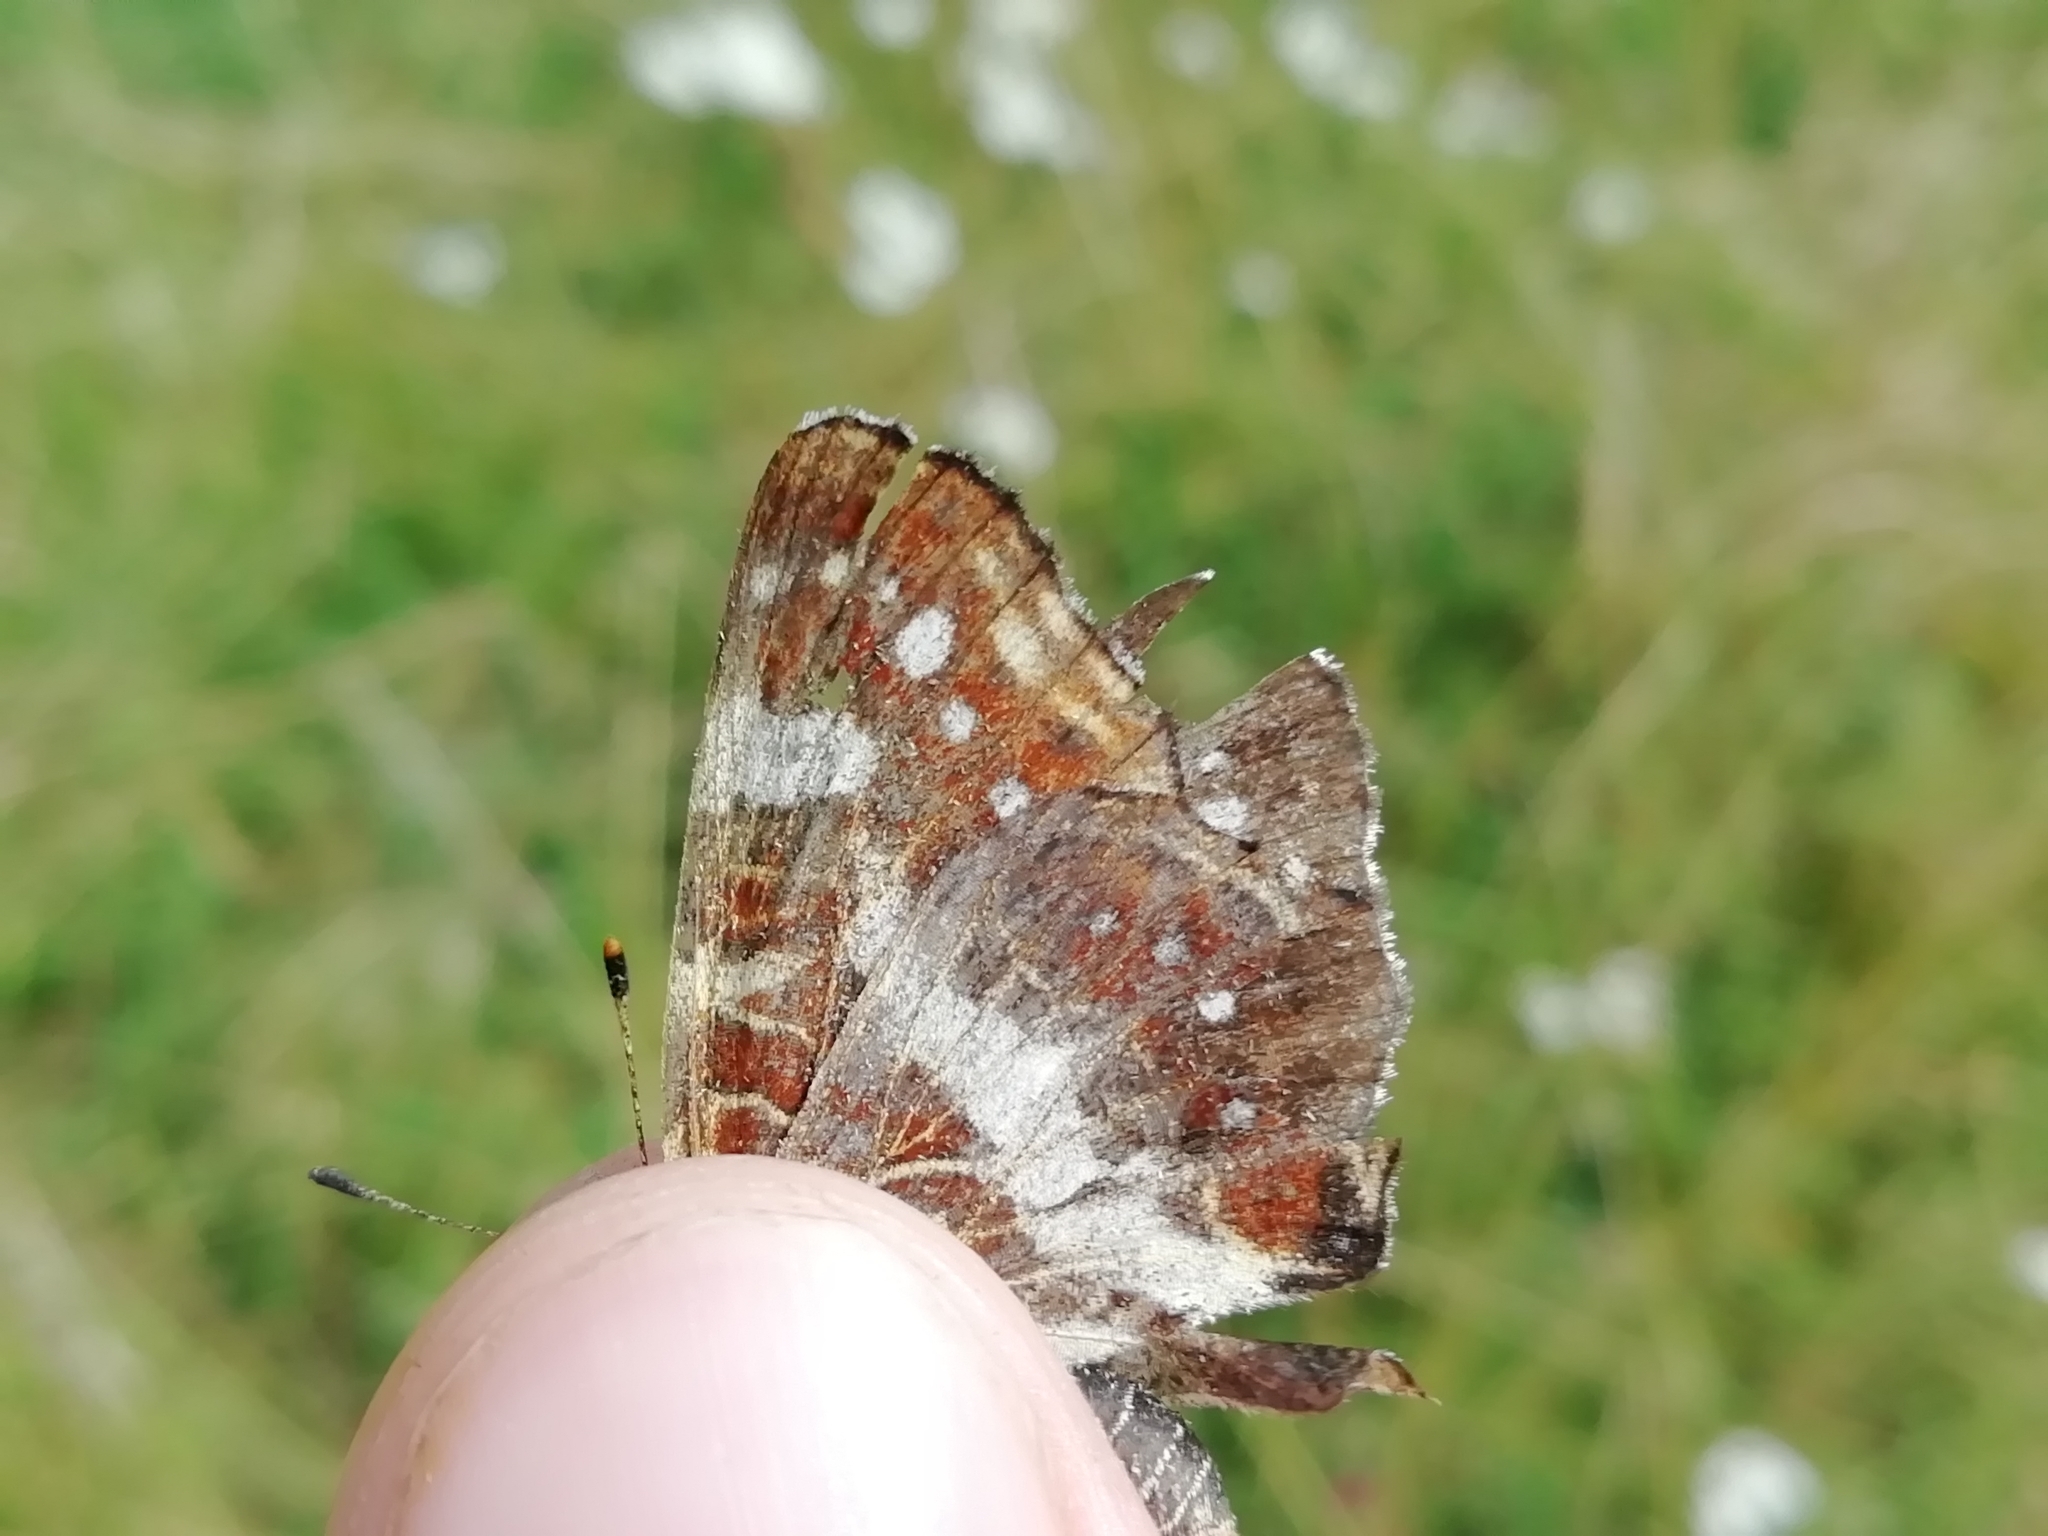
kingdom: Animalia
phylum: Arthropoda
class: Insecta
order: Lepidoptera
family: Nymphalidae
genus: Araschnia
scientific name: Araschnia levana
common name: Map butterfly
